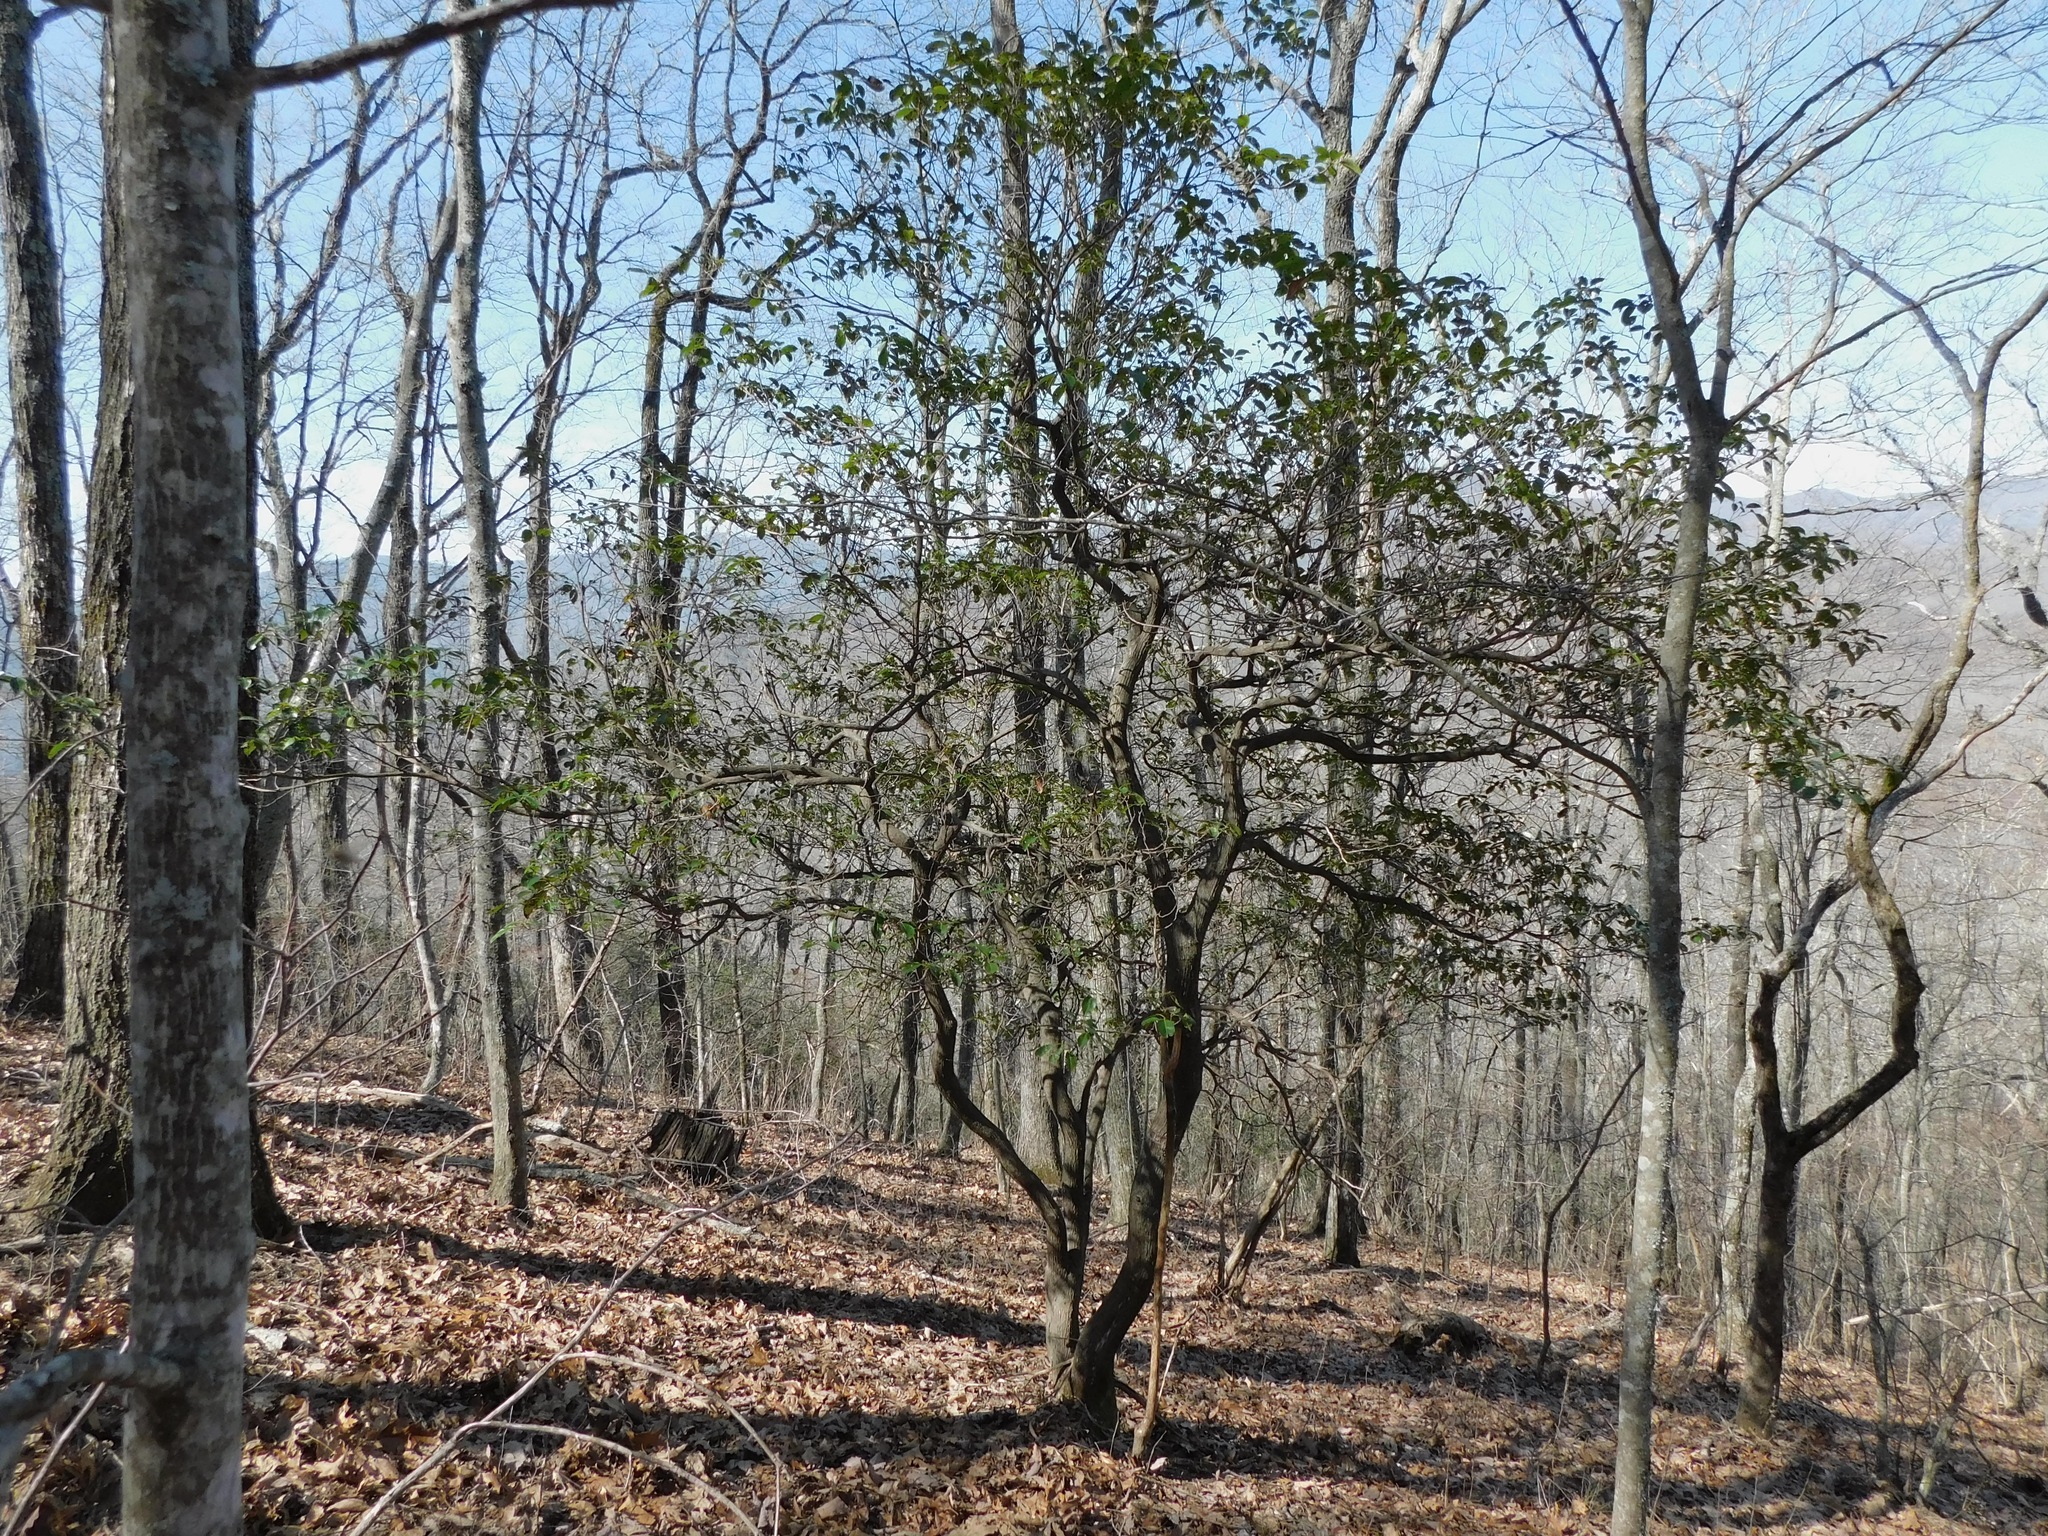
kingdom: Plantae
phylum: Tracheophyta
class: Magnoliopsida
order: Ericales
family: Ericaceae
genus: Kalmia
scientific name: Kalmia latifolia
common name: Mountain-laurel
